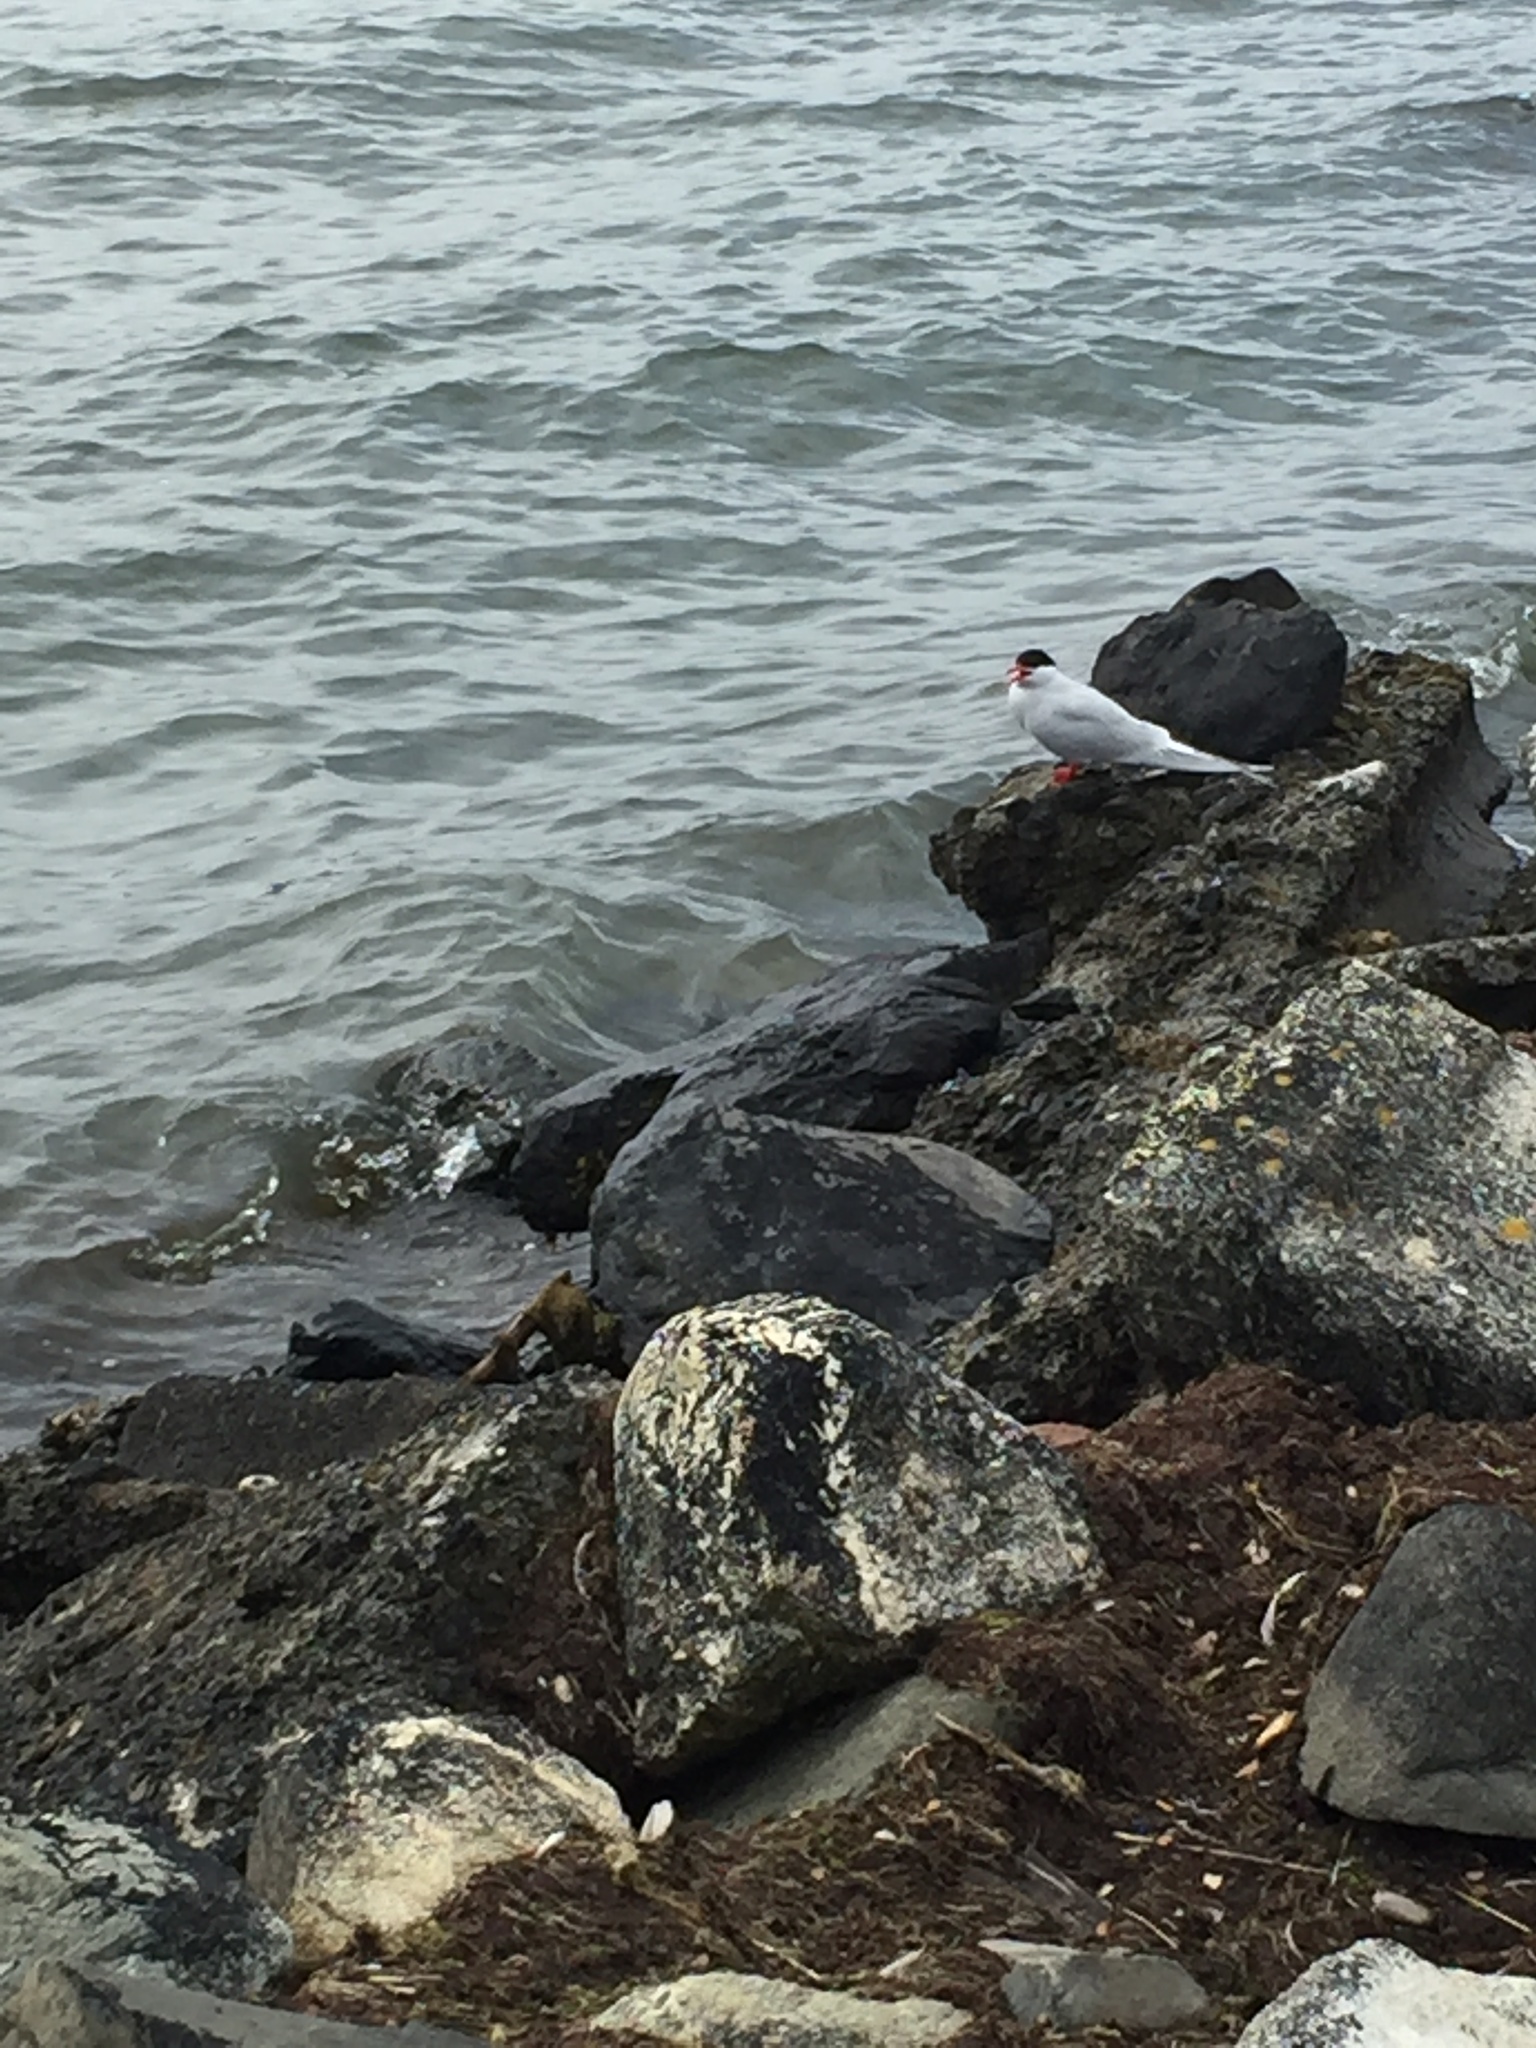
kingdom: Animalia
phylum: Chordata
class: Aves
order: Charadriiformes
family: Laridae
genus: Sterna
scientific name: Sterna hirundinacea
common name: South american tern
